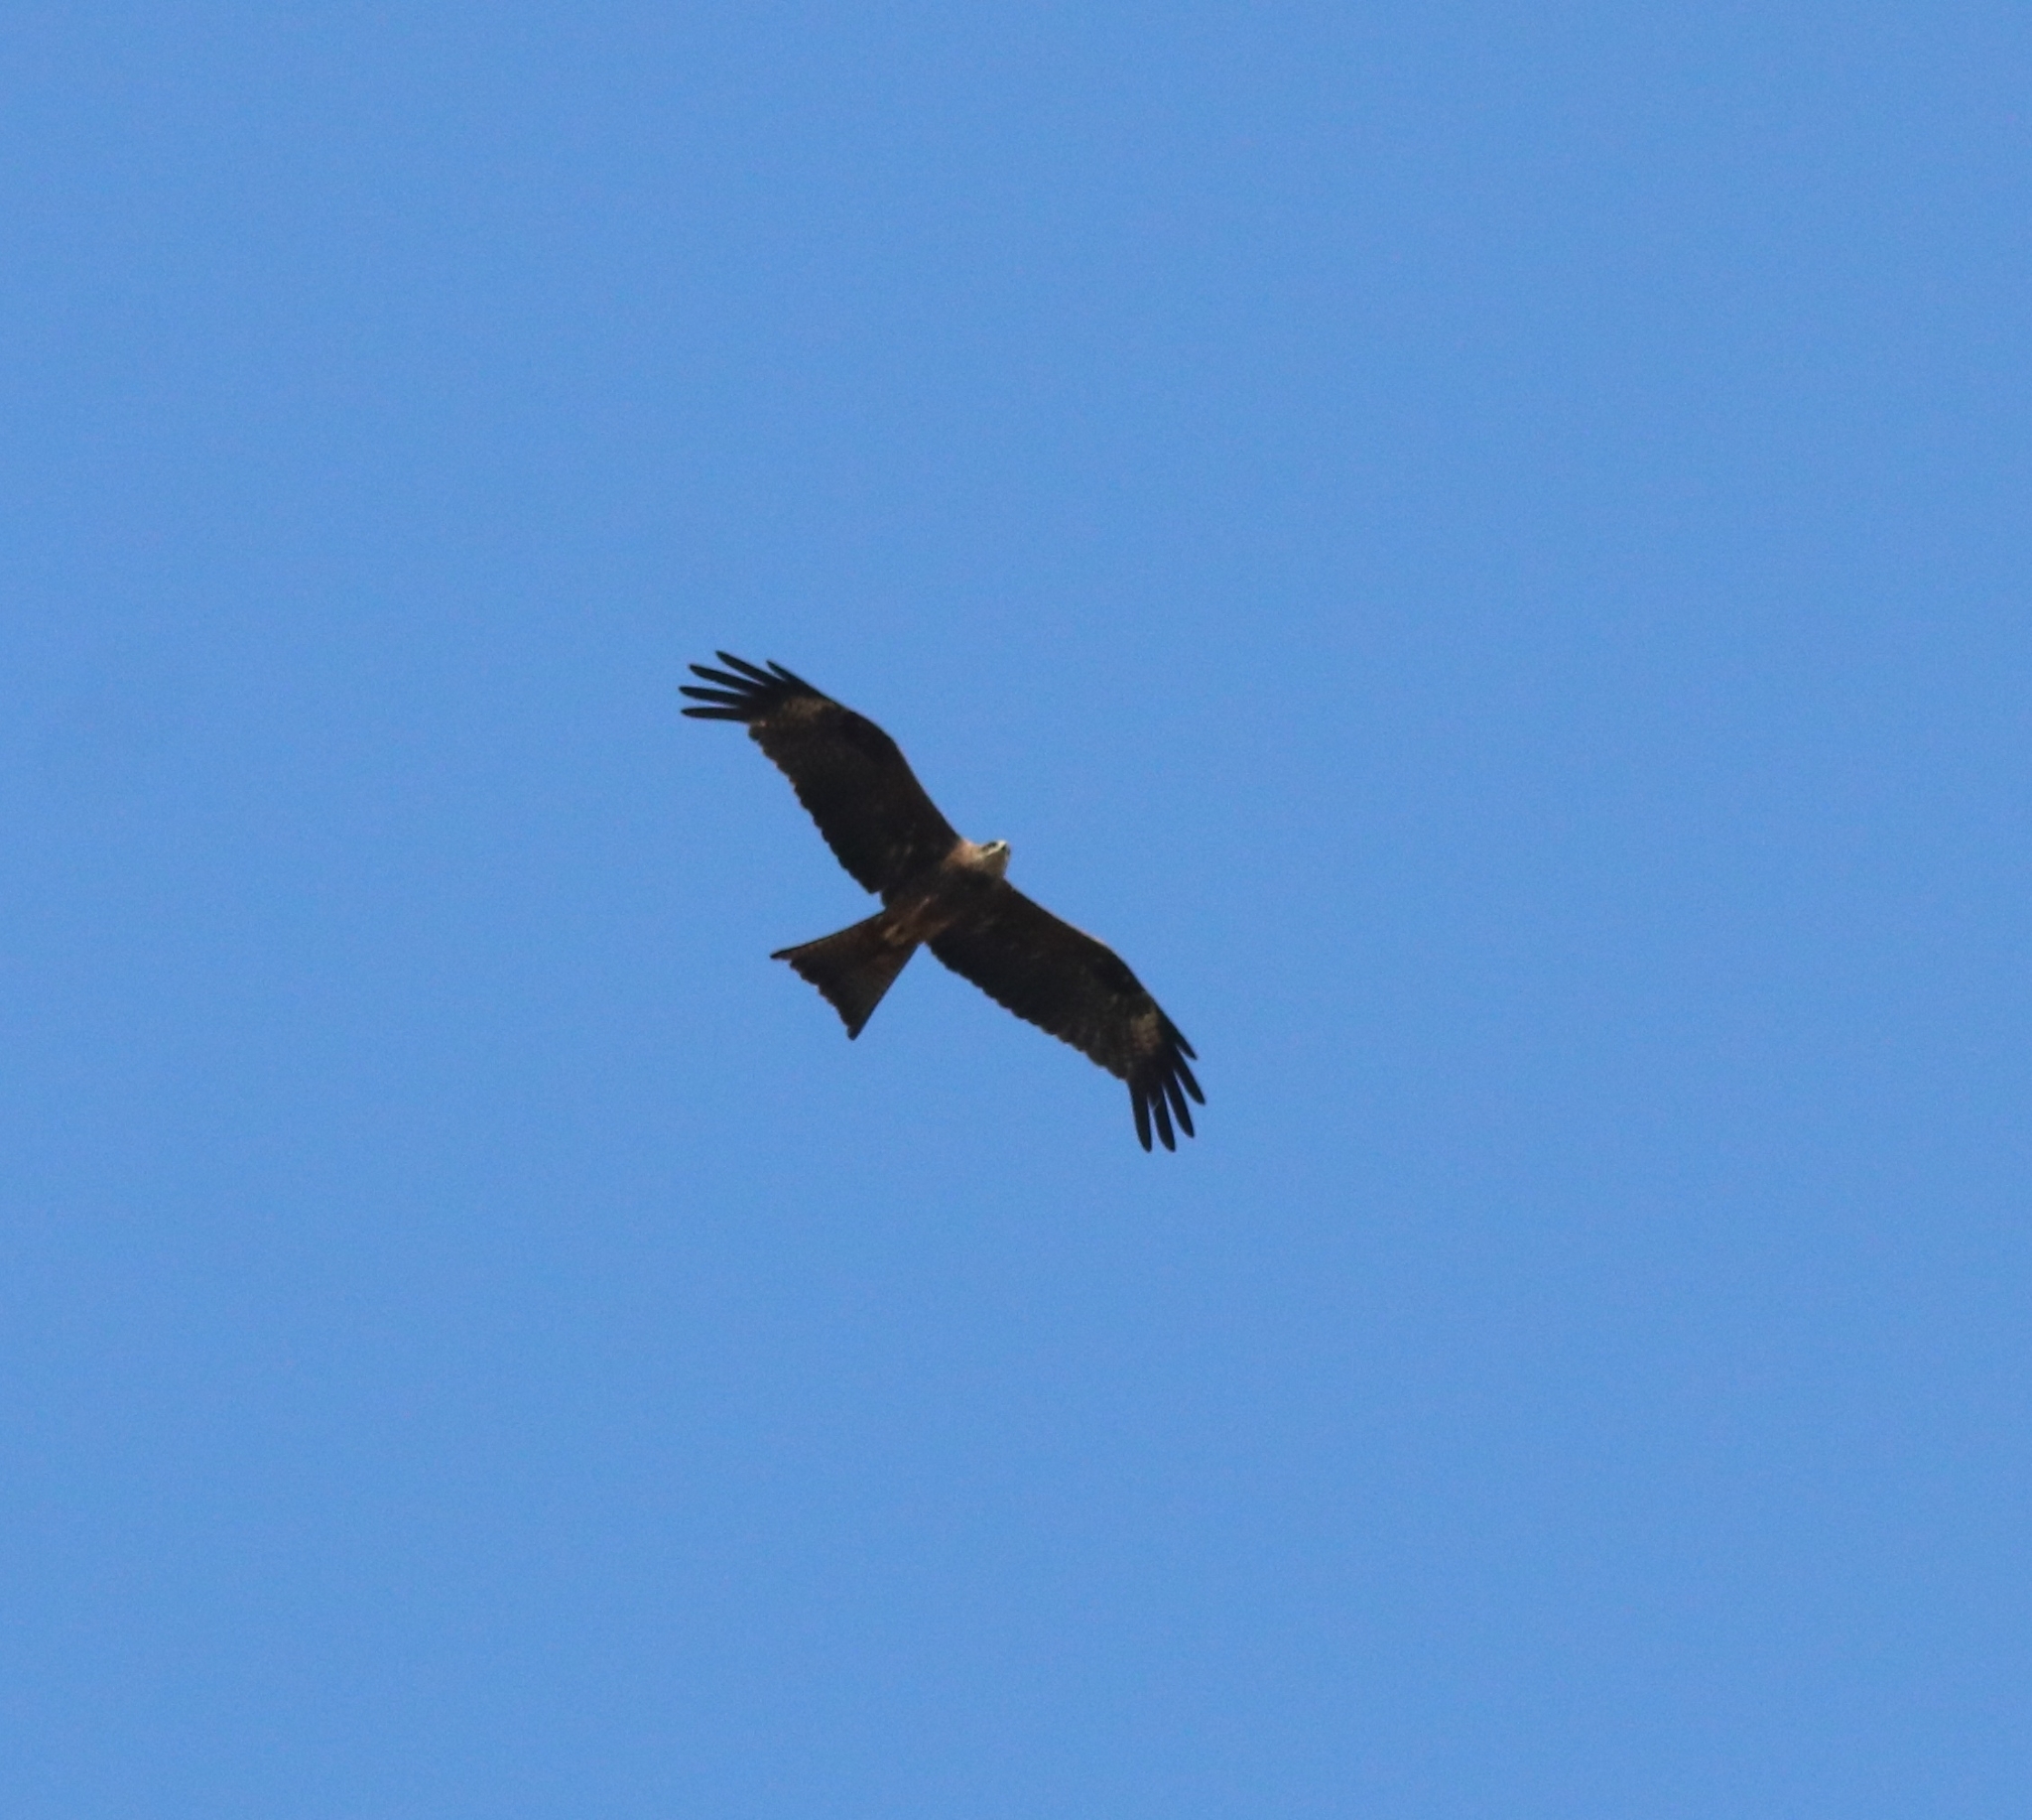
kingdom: Animalia
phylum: Chordata
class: Aves
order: Accipitriformes
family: Accipitridae
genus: Milvus
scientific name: Milvus migrans
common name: Black kite
